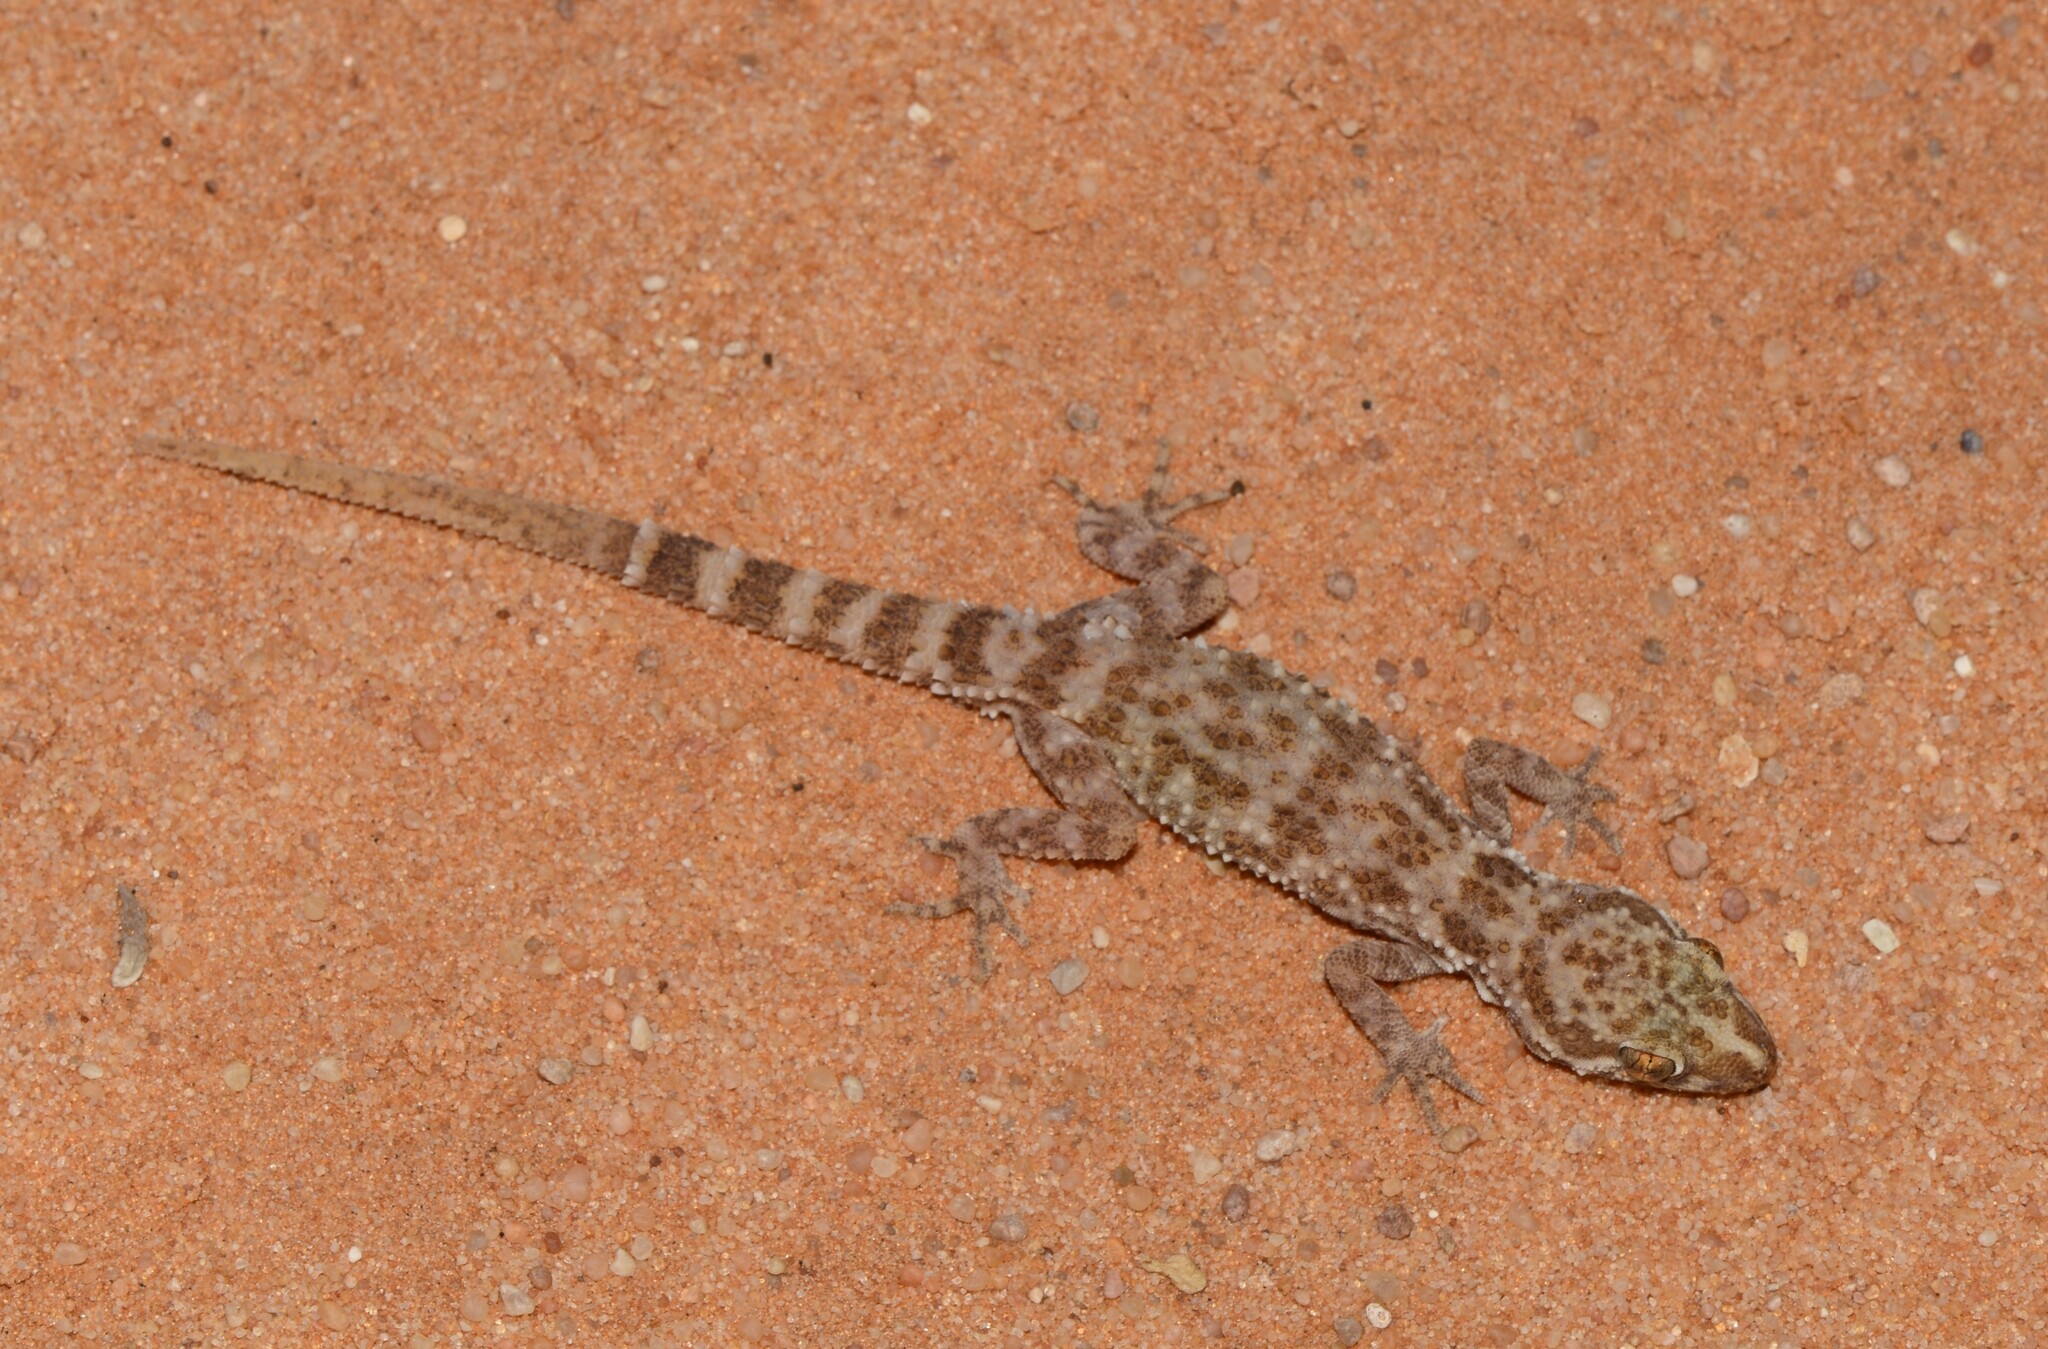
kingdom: Animalia
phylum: Chordata
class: Squamata
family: Gekkonidae
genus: Bunopus
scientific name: Bunopus tuberculatus
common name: Southern tuberculated gecko
